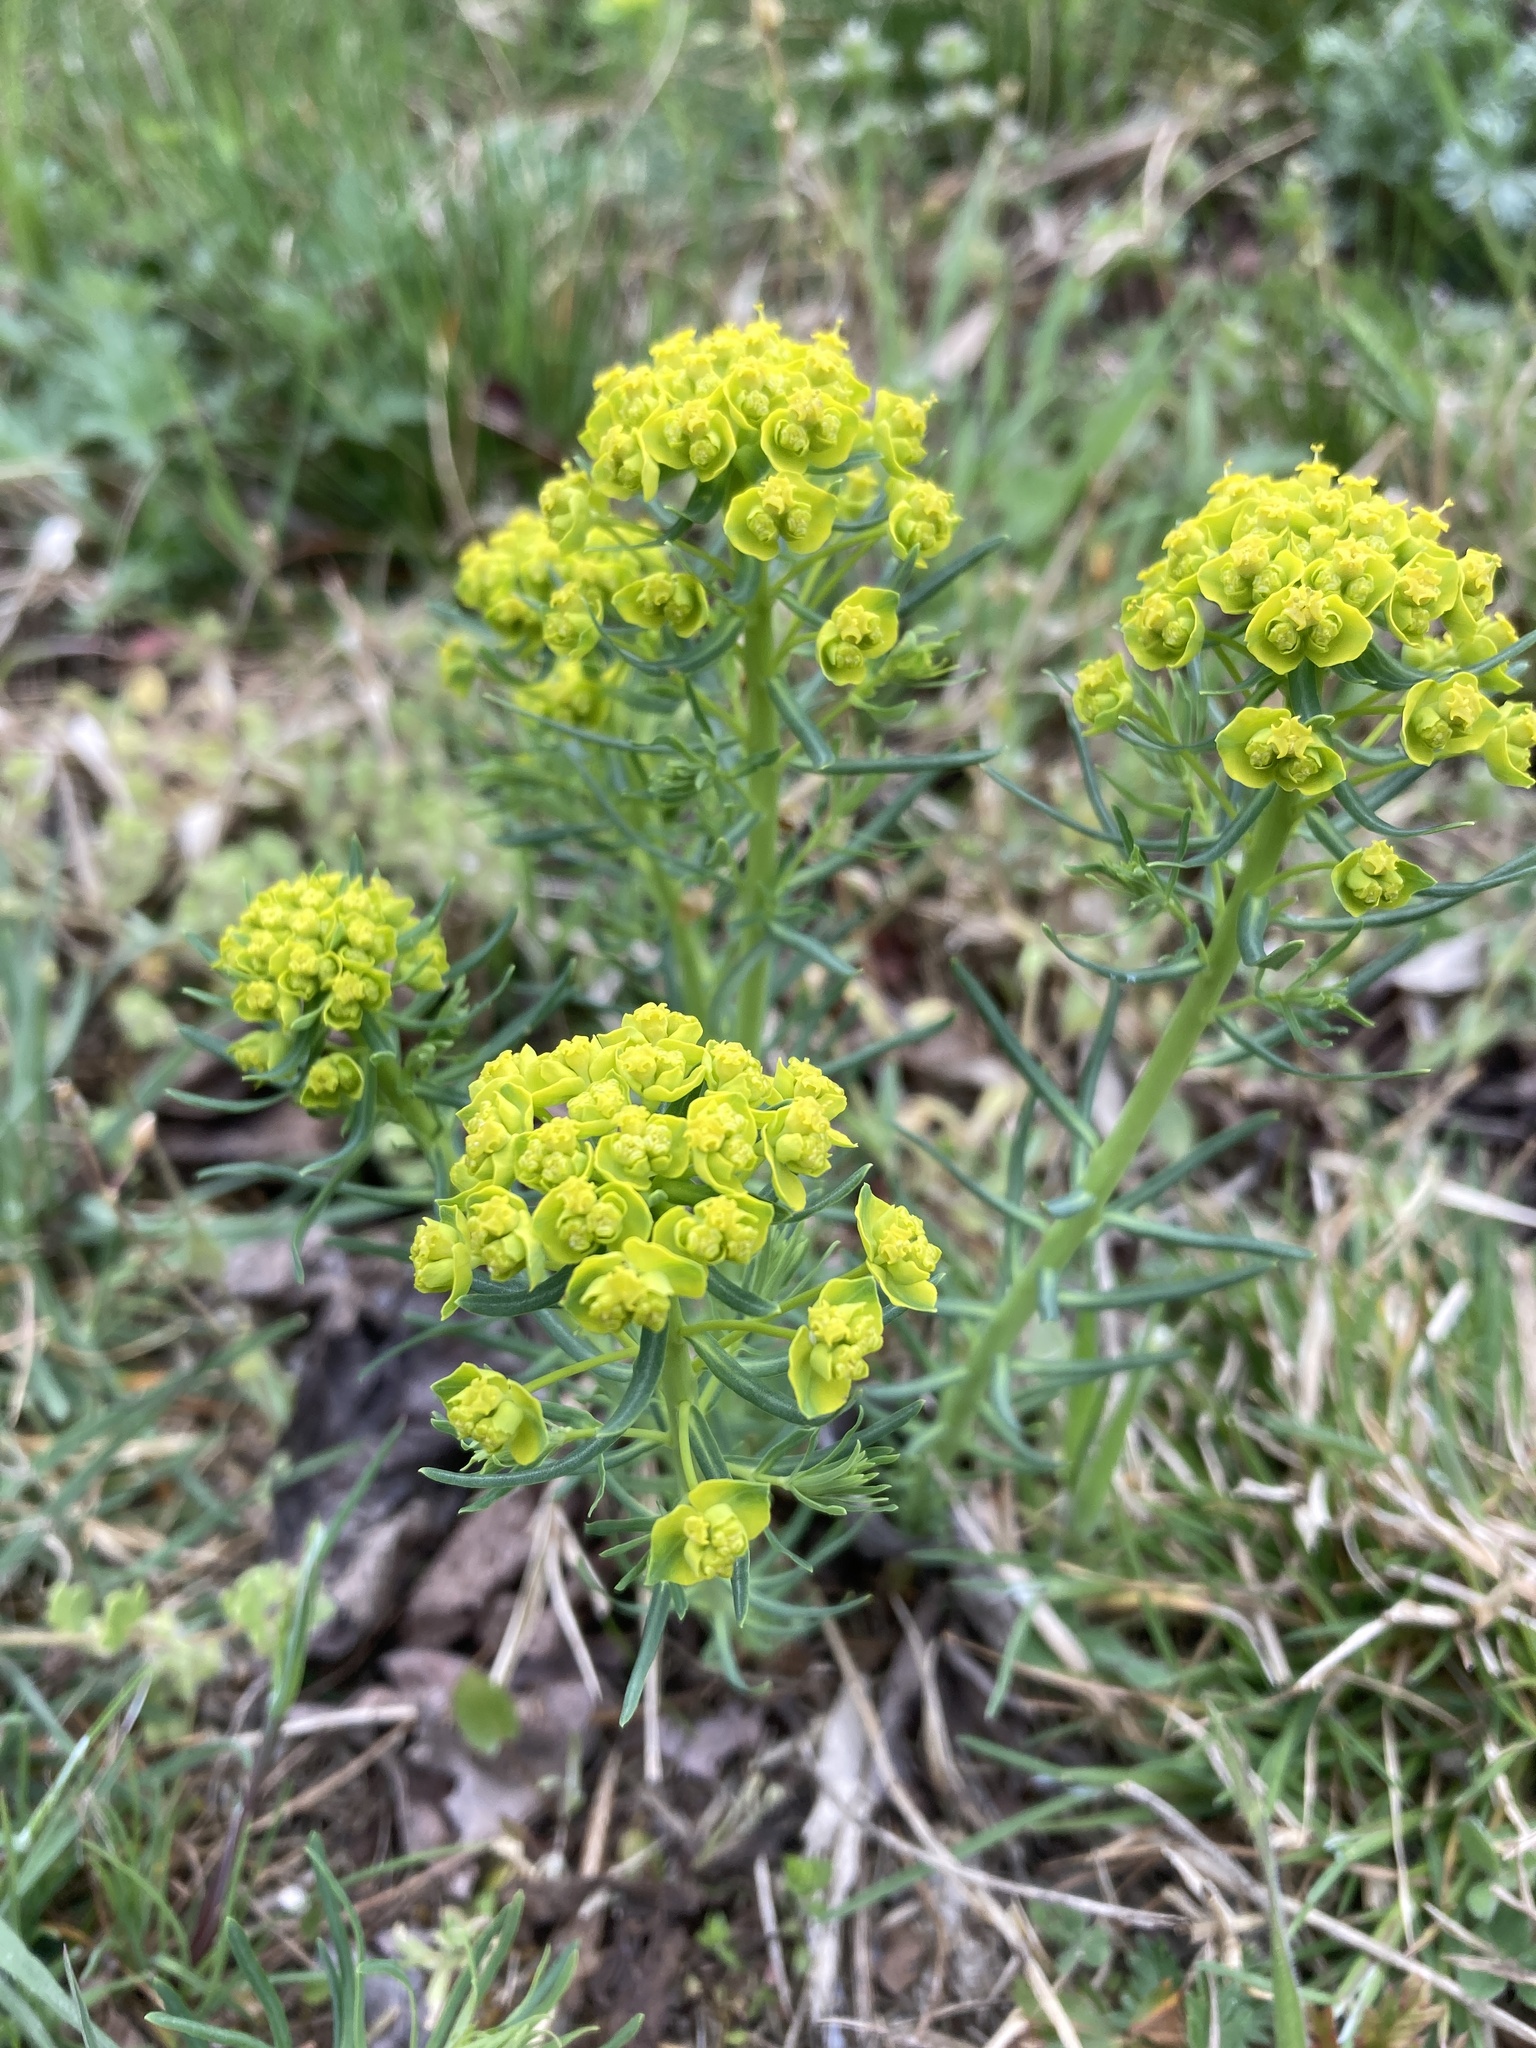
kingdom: Plantae
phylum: Tracheophyta
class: Magnoliopsida
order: Malpighiales
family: Euphorbiaceae
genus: Euphorbia
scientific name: Euphorbia cyparissias
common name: Cypress spurge
